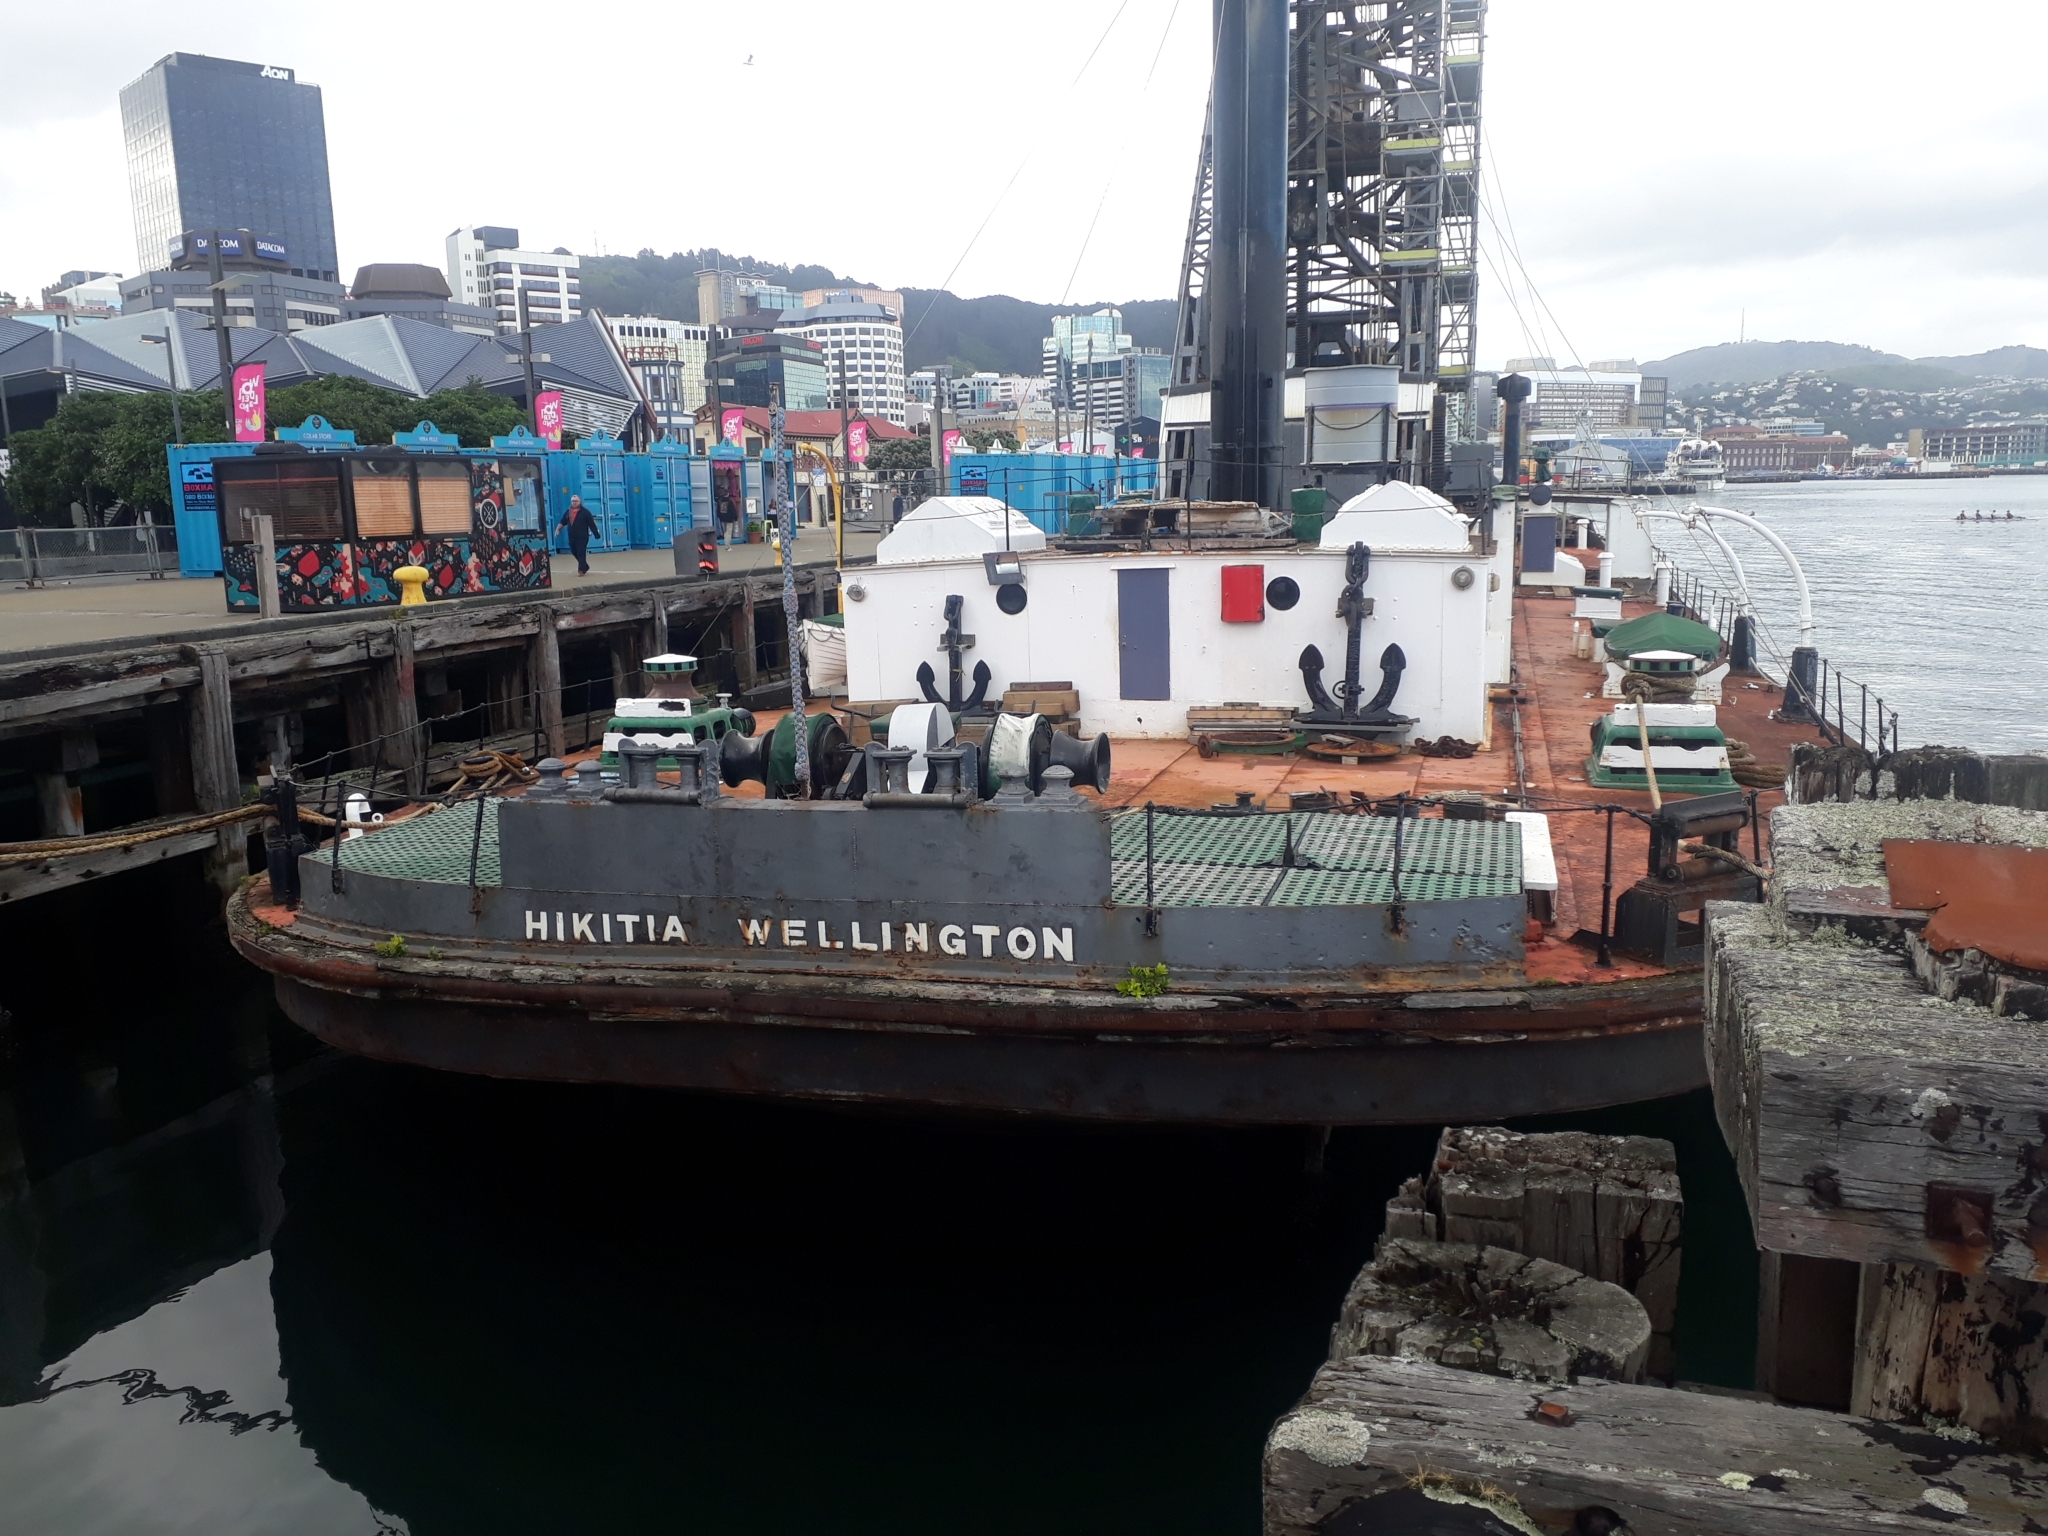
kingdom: Plantae
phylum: Tracheophyta
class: Magnoliopsida
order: Myrtales
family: Myrtaceae
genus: Metrosideros
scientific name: Metrosideros excelsa
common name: New zealand christmastree
